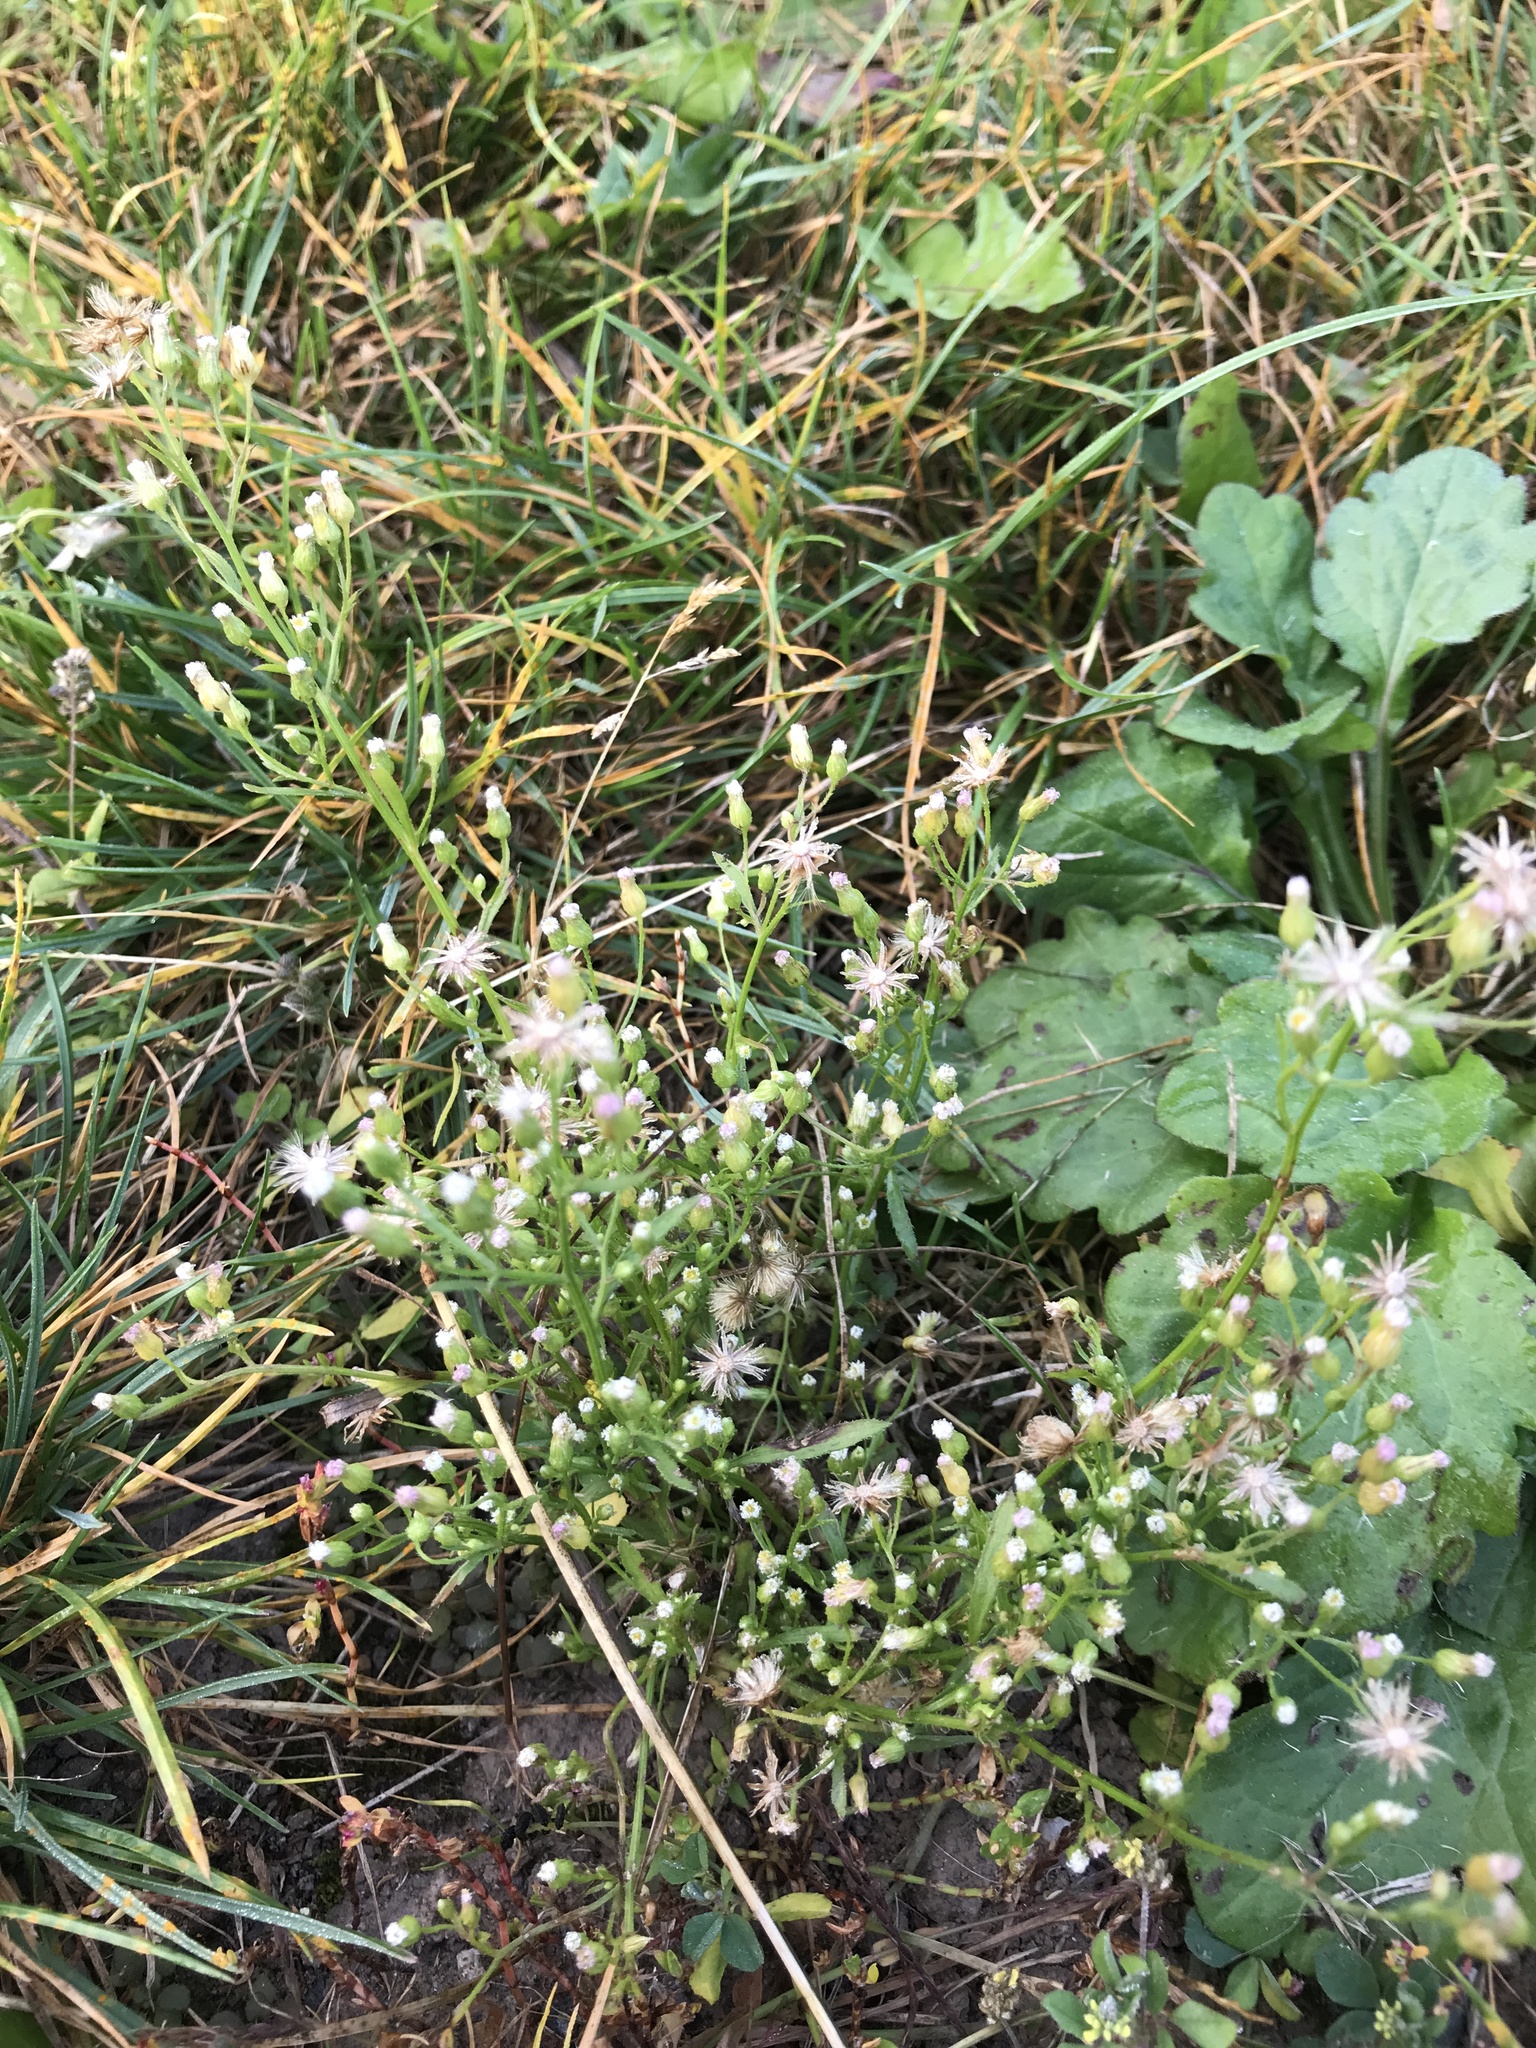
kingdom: Plantae
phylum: Tracheophyta
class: Magnoliopsida
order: Asterales
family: Asteraceae
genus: Erigeron
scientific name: Erigeron canadensis
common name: Canadian fleabane
